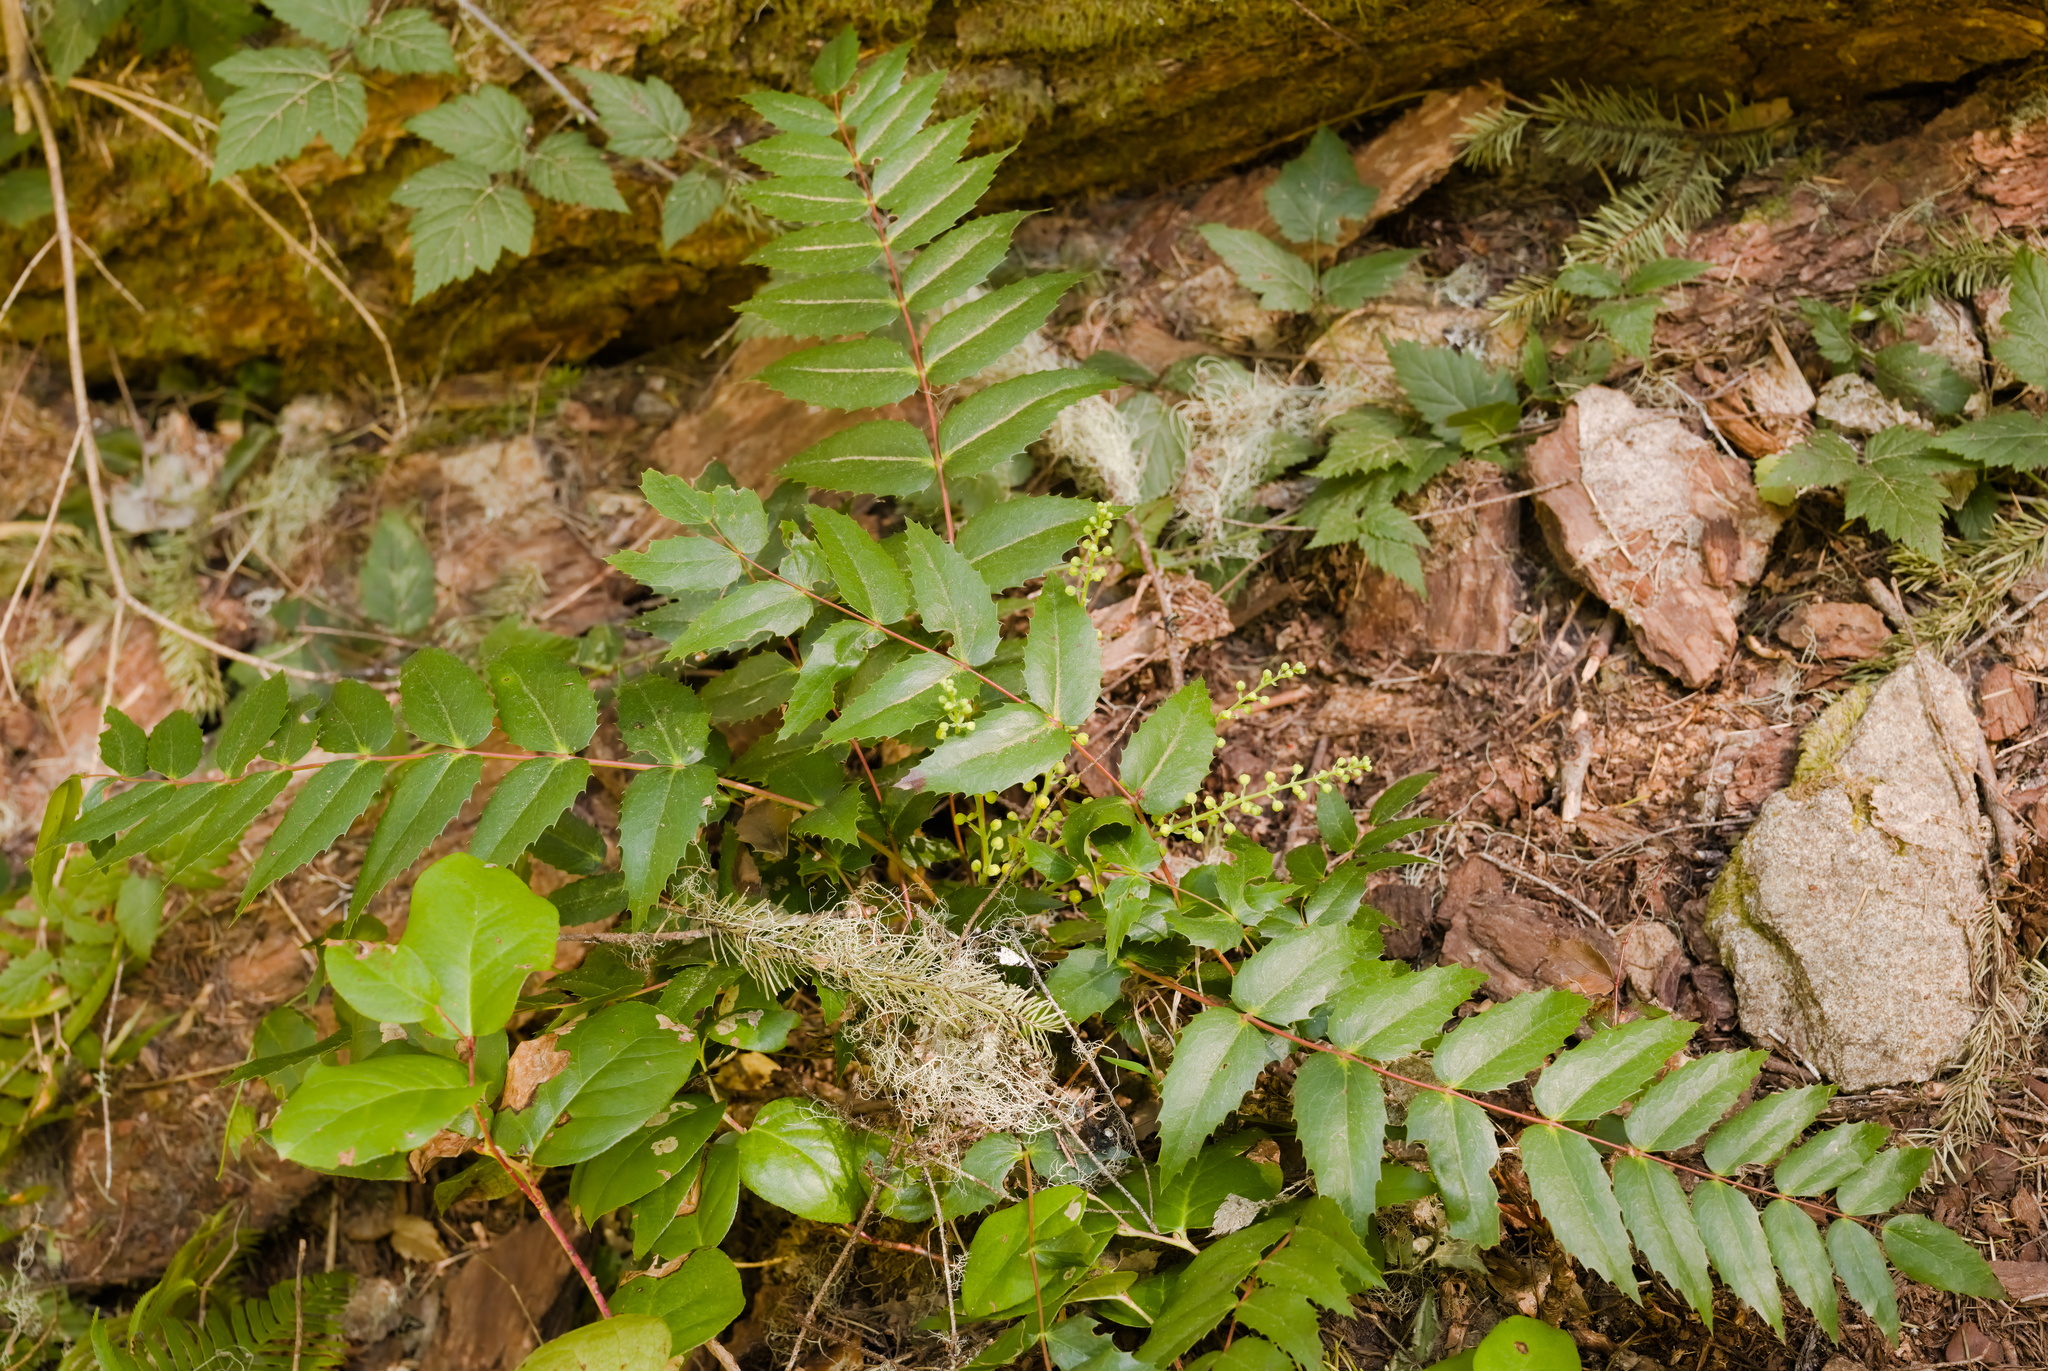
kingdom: Plantae
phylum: Tracheophyta
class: Magnoliopsida
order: Ranunculales
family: Berberidaceae
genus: Mahonia
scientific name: Mahonia nervosa
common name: Cascade oregon-grape
